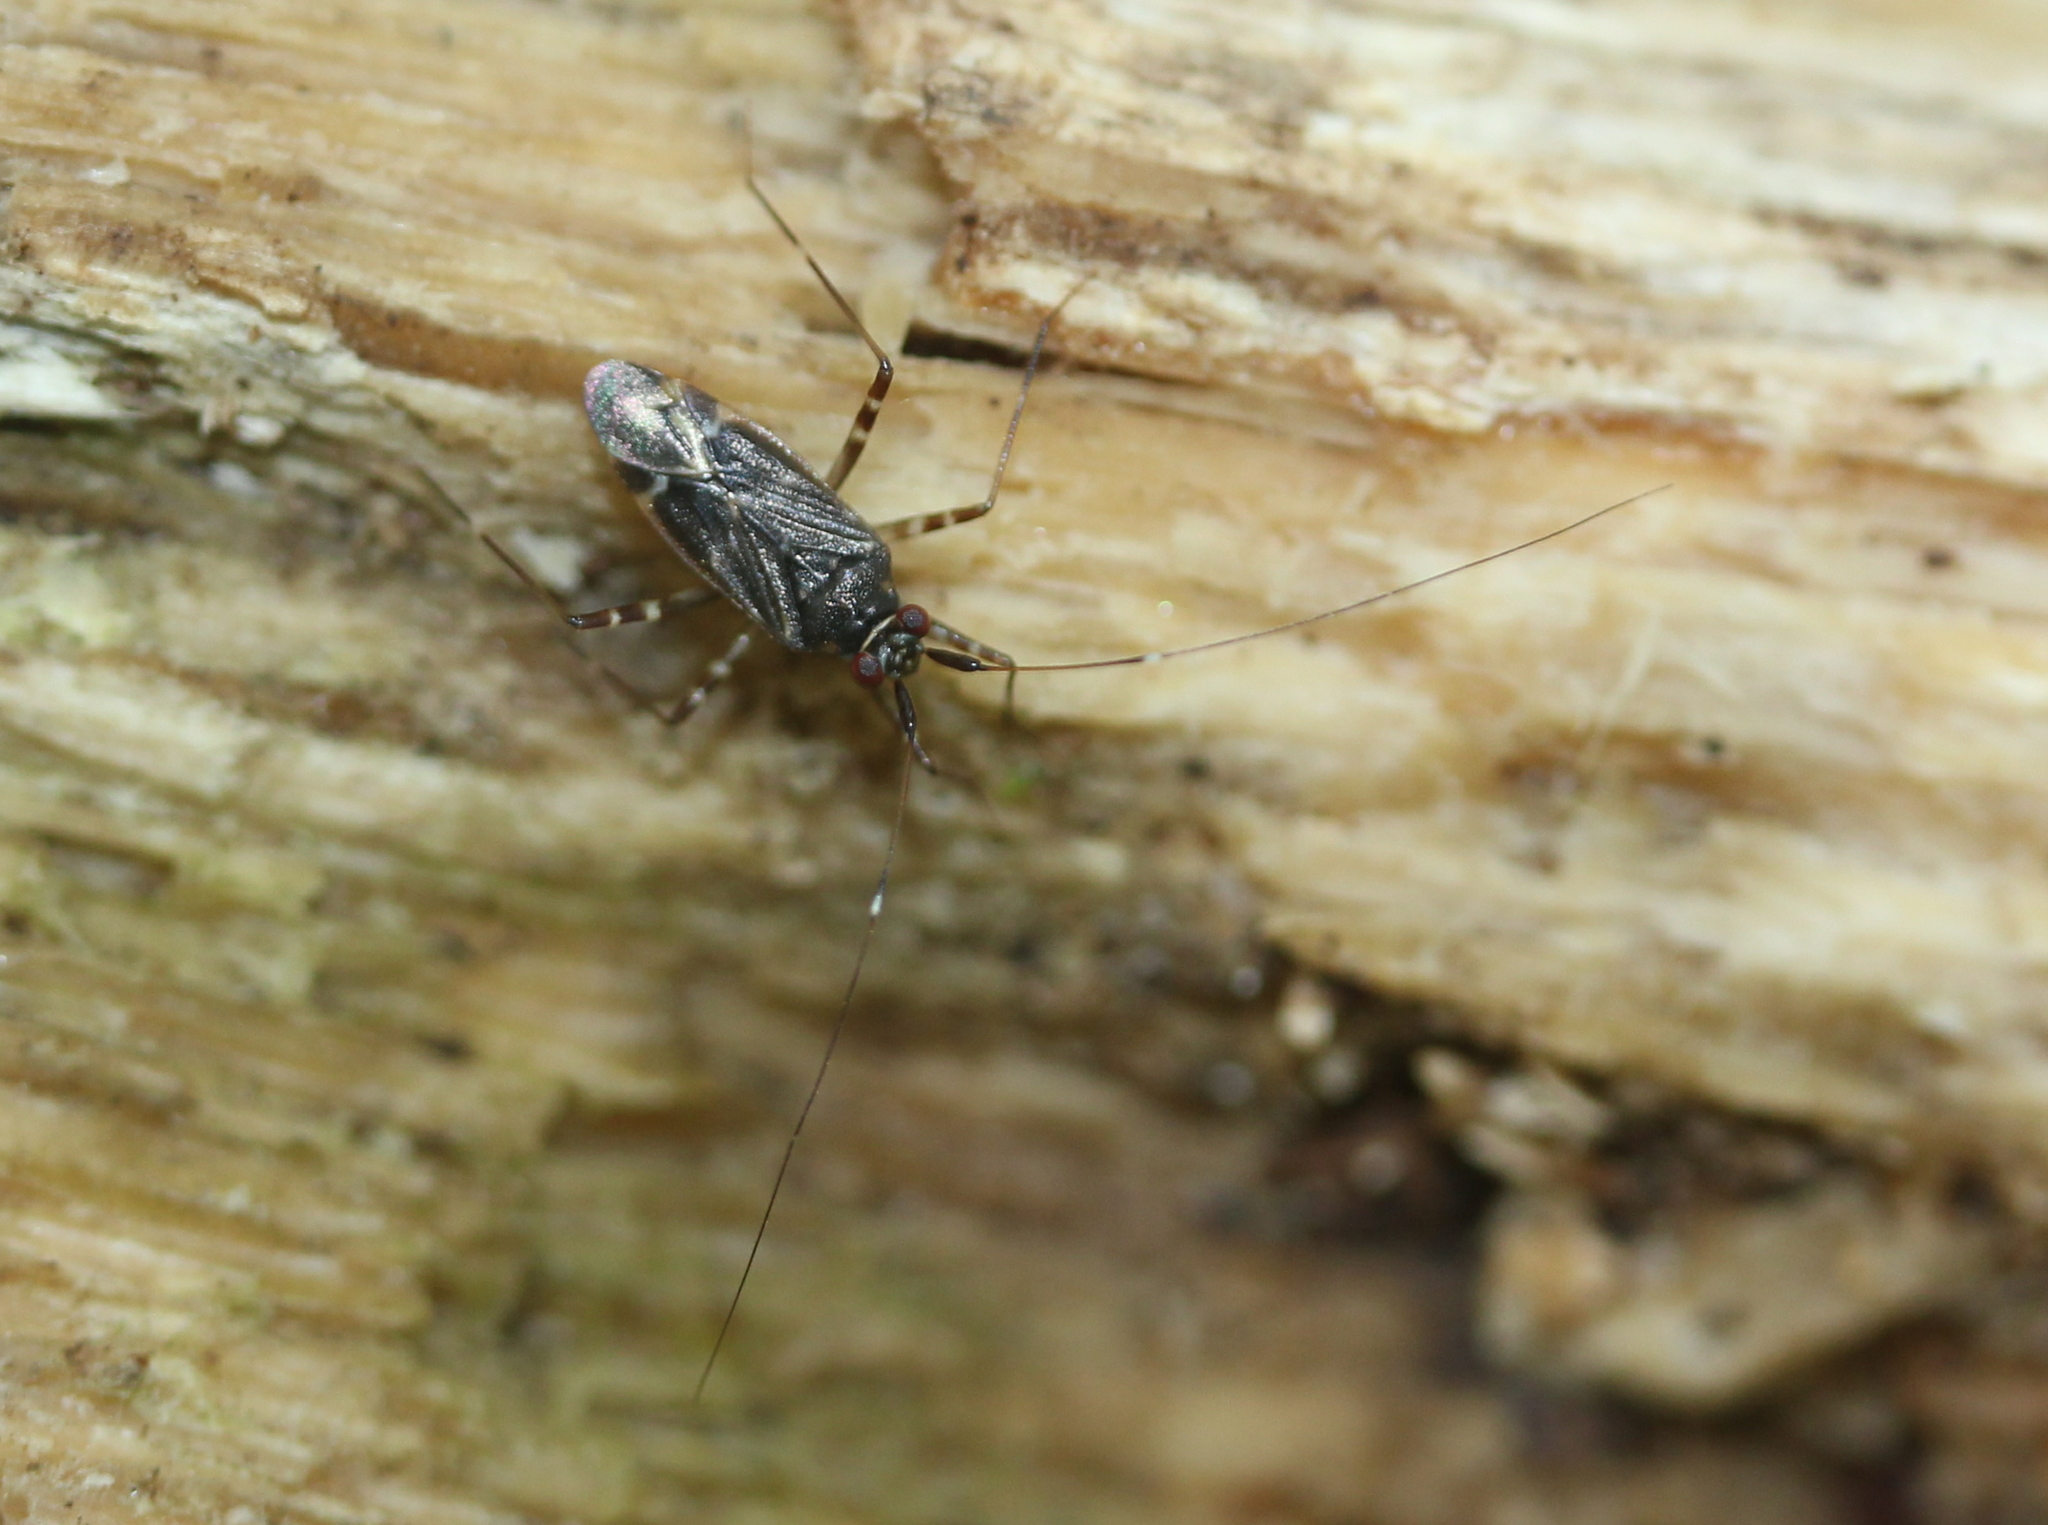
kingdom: Animalia
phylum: Arthropoda
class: Insecta
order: Hemiptera
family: Miridae
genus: Cylapus
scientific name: Cylapus tenuicornis
